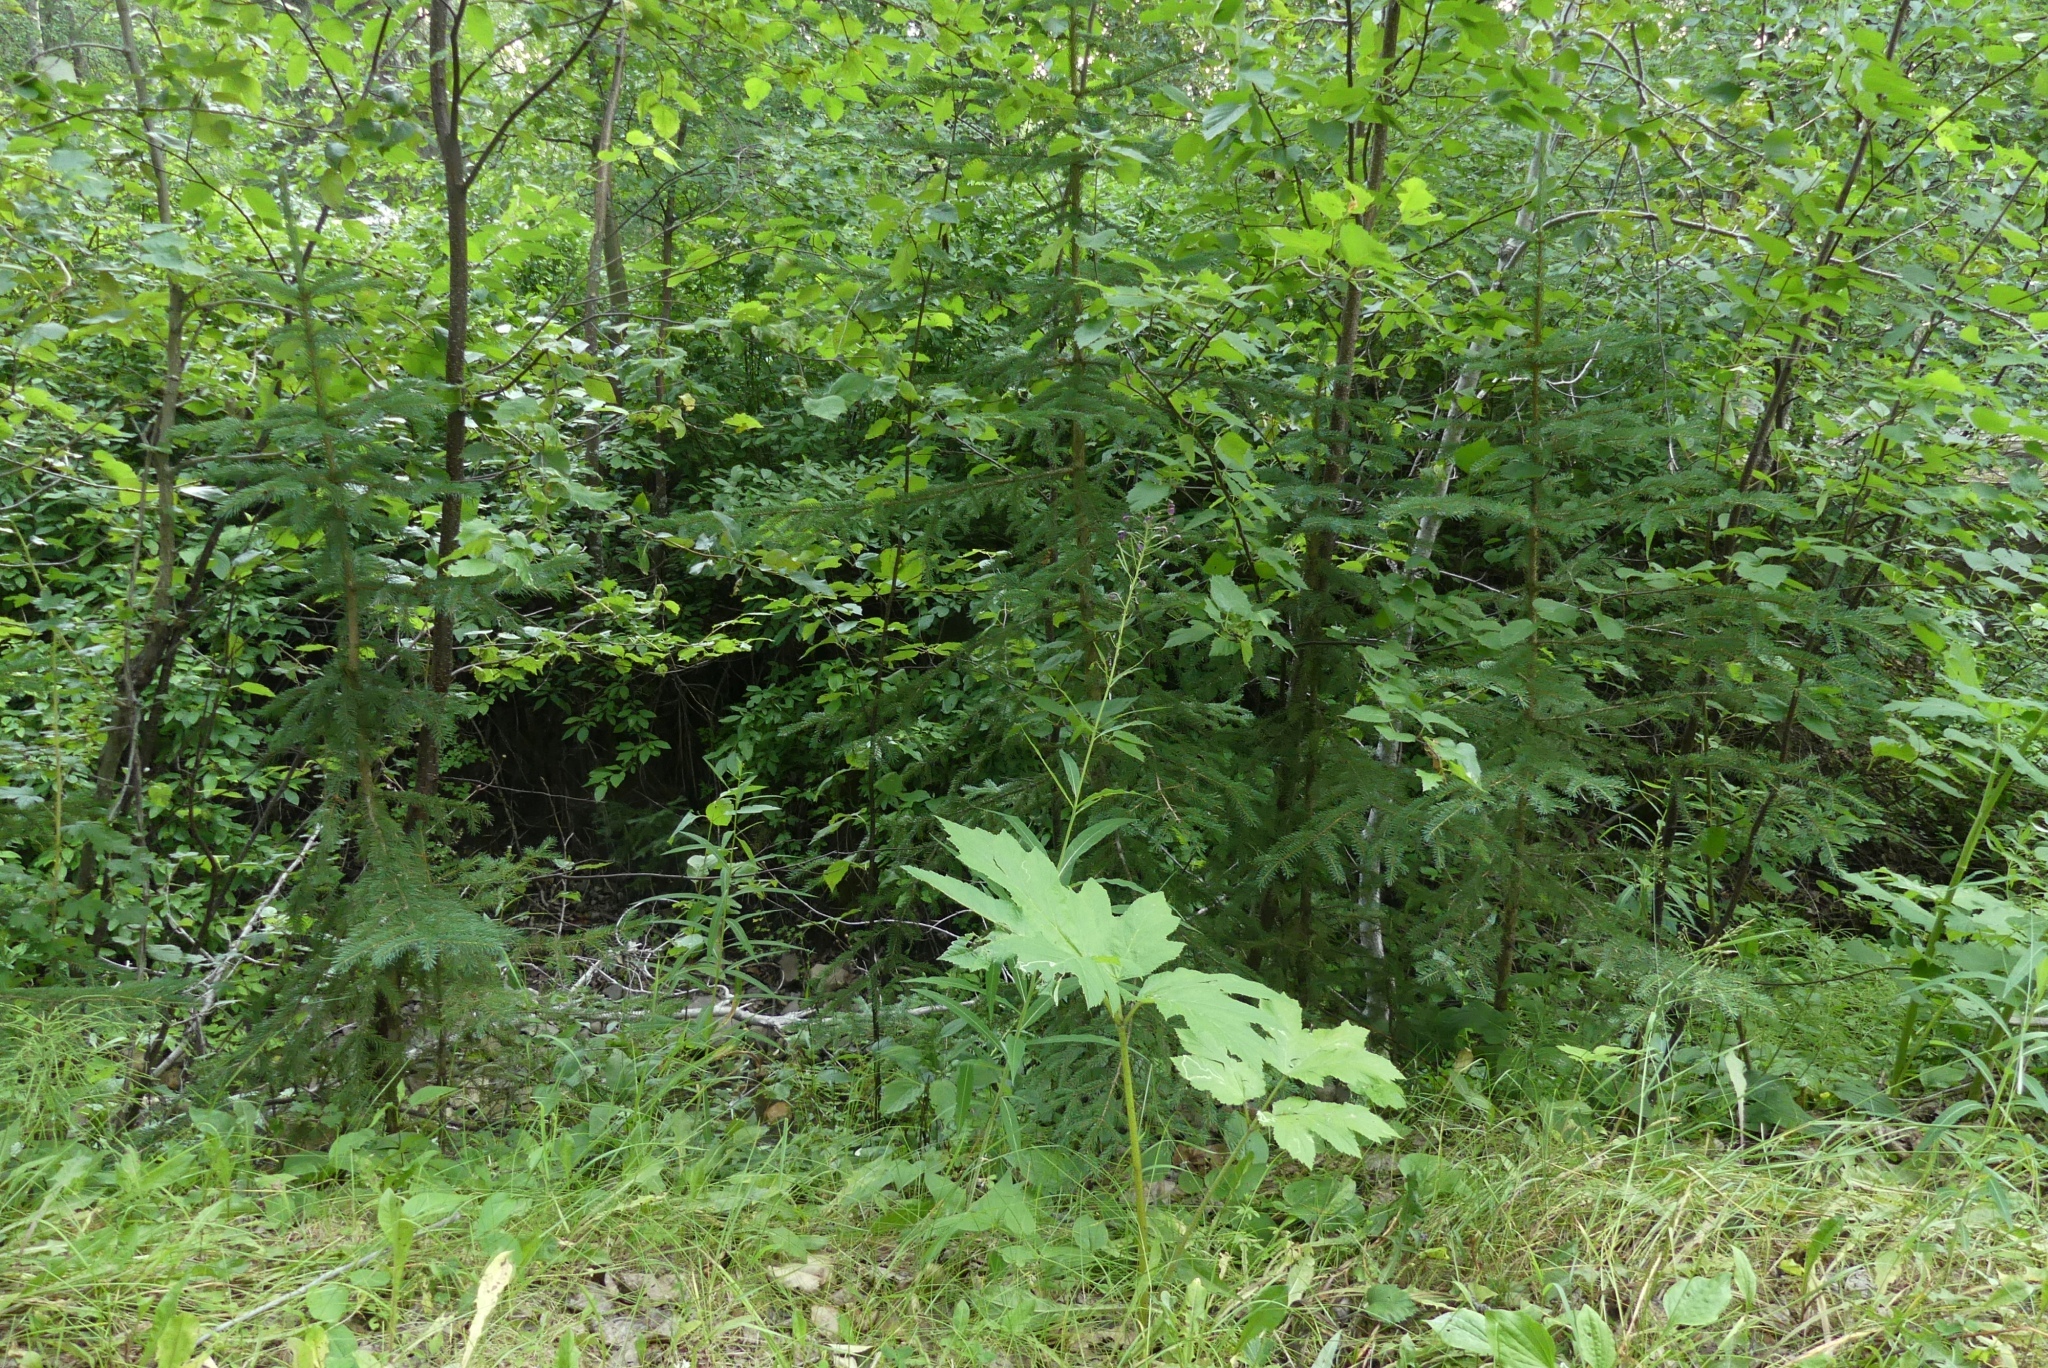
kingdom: Plantae
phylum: Tracheophyta
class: Magnoliopsida
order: Myrtales
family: Onagraceae
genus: Chamaenerion
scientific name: Chamaenerion angustifolium
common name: Fireweed
